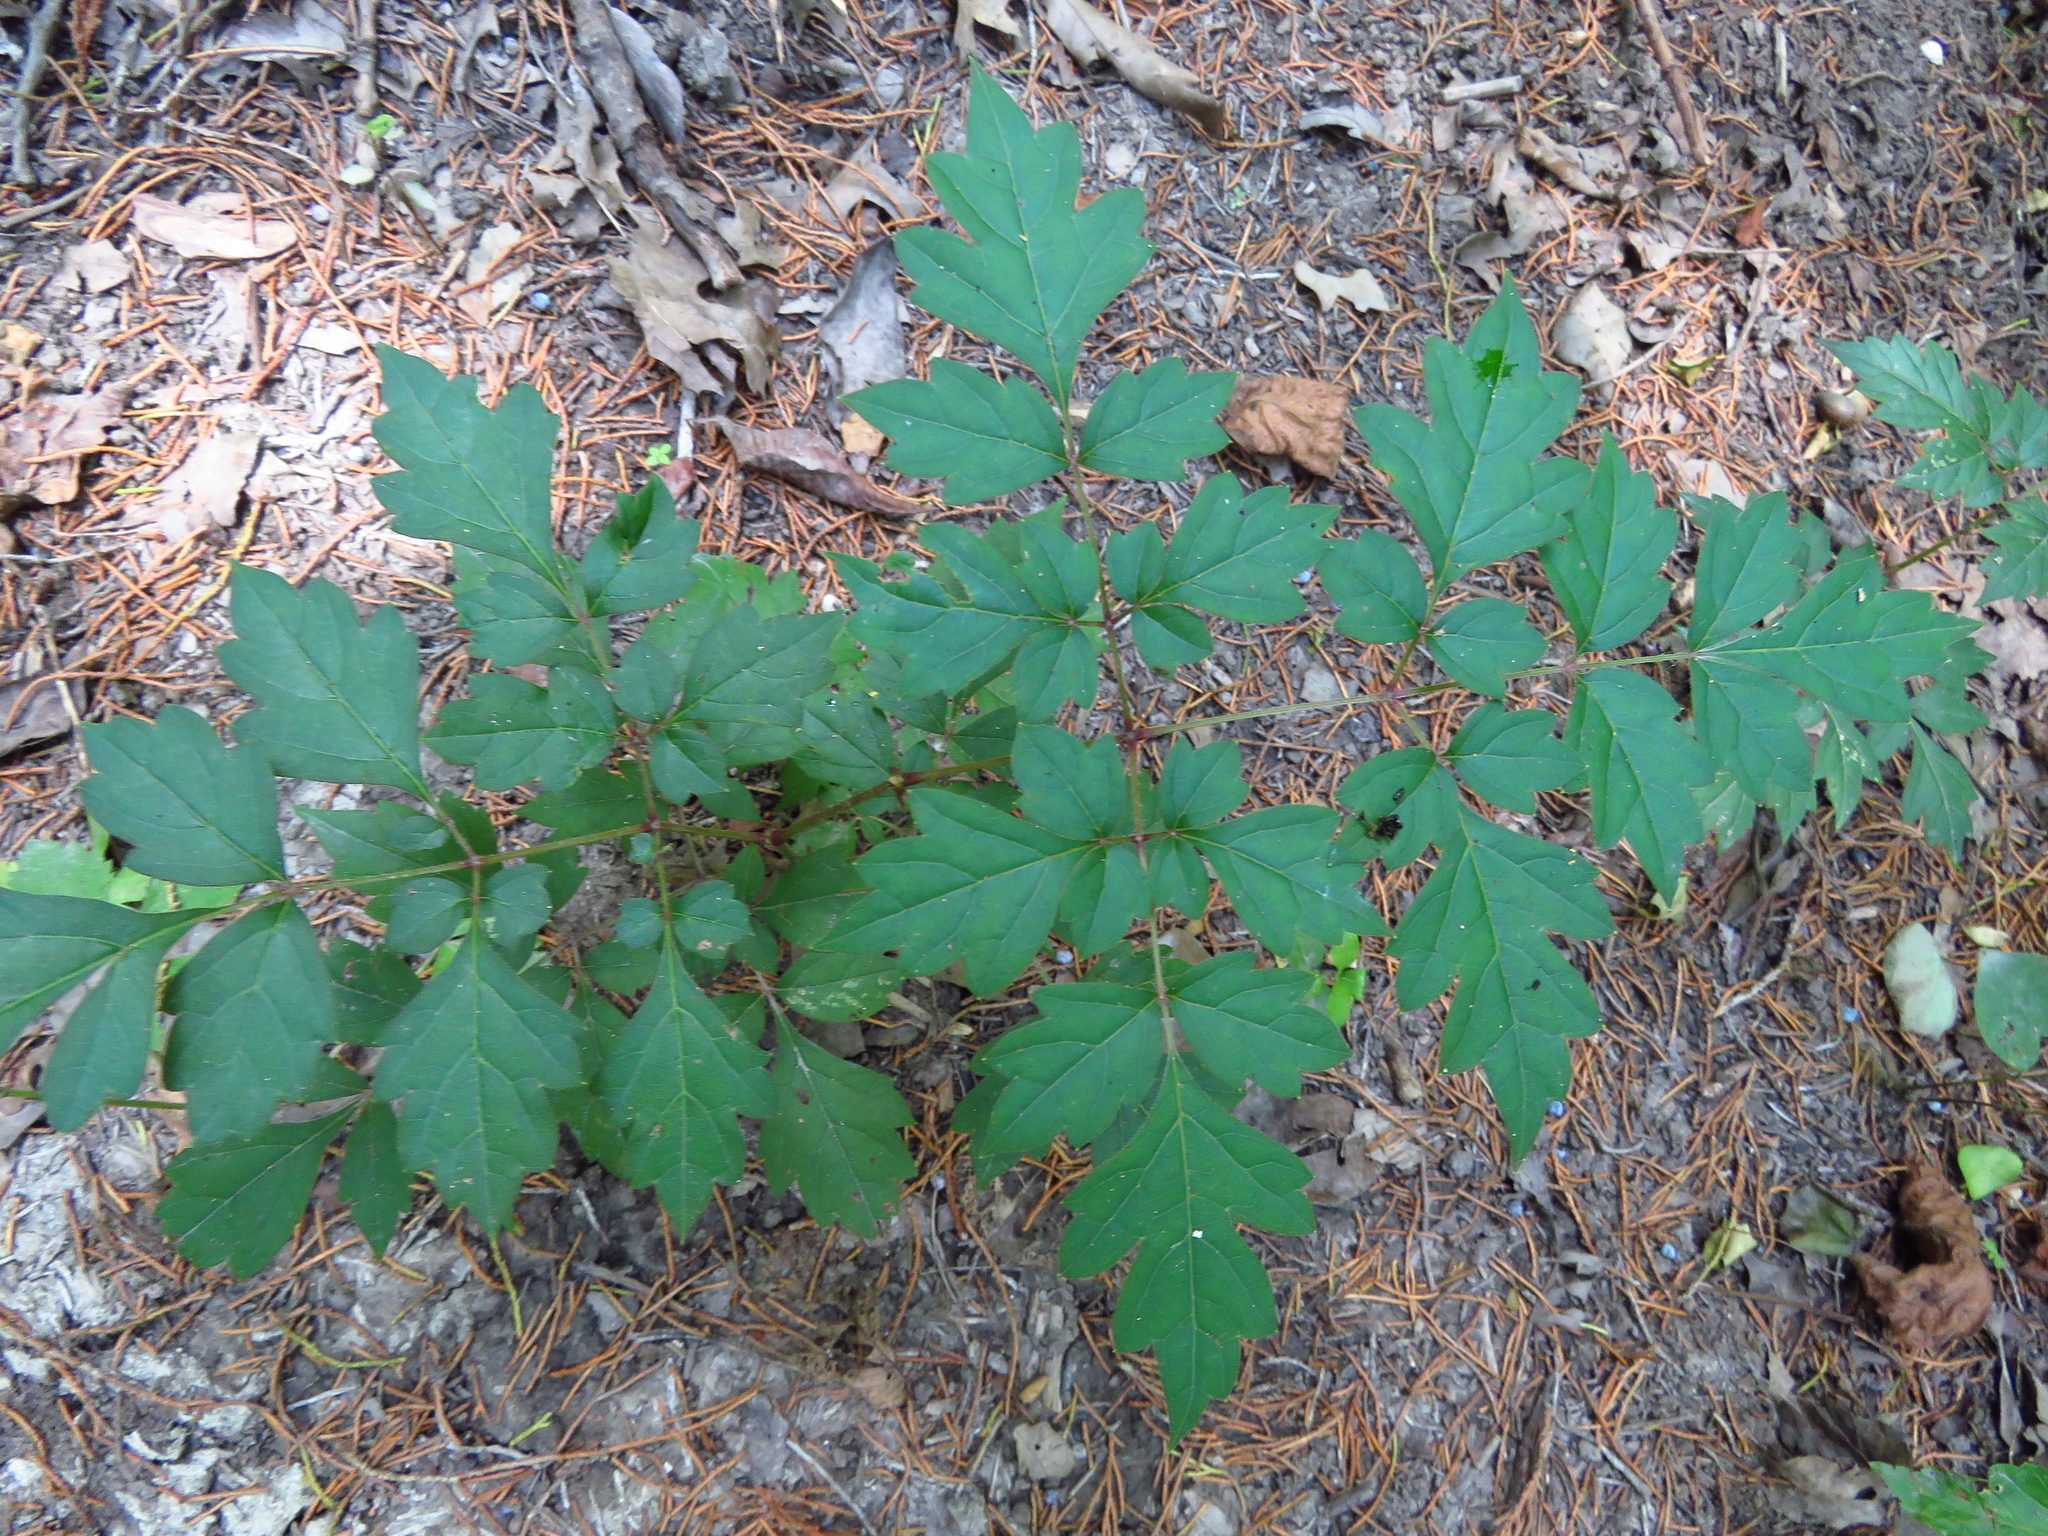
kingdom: Plantae
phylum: Tracheophyta
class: Magnoliopsida
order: Vitales
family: Vitaceae
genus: Nekemias
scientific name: Nekemias arborea
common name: Peppervine
